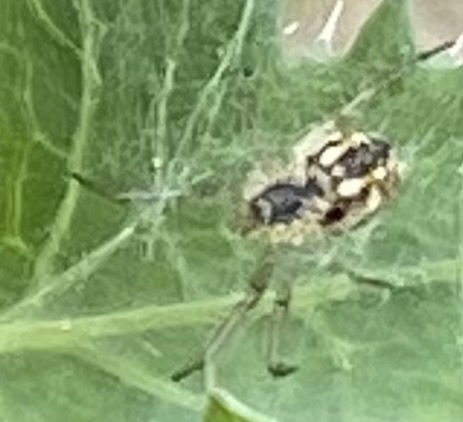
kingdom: Animalia
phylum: Arthropoda
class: Arachnida
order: Araneae
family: Araneidae
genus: Mangora
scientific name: Mangora acalypha
